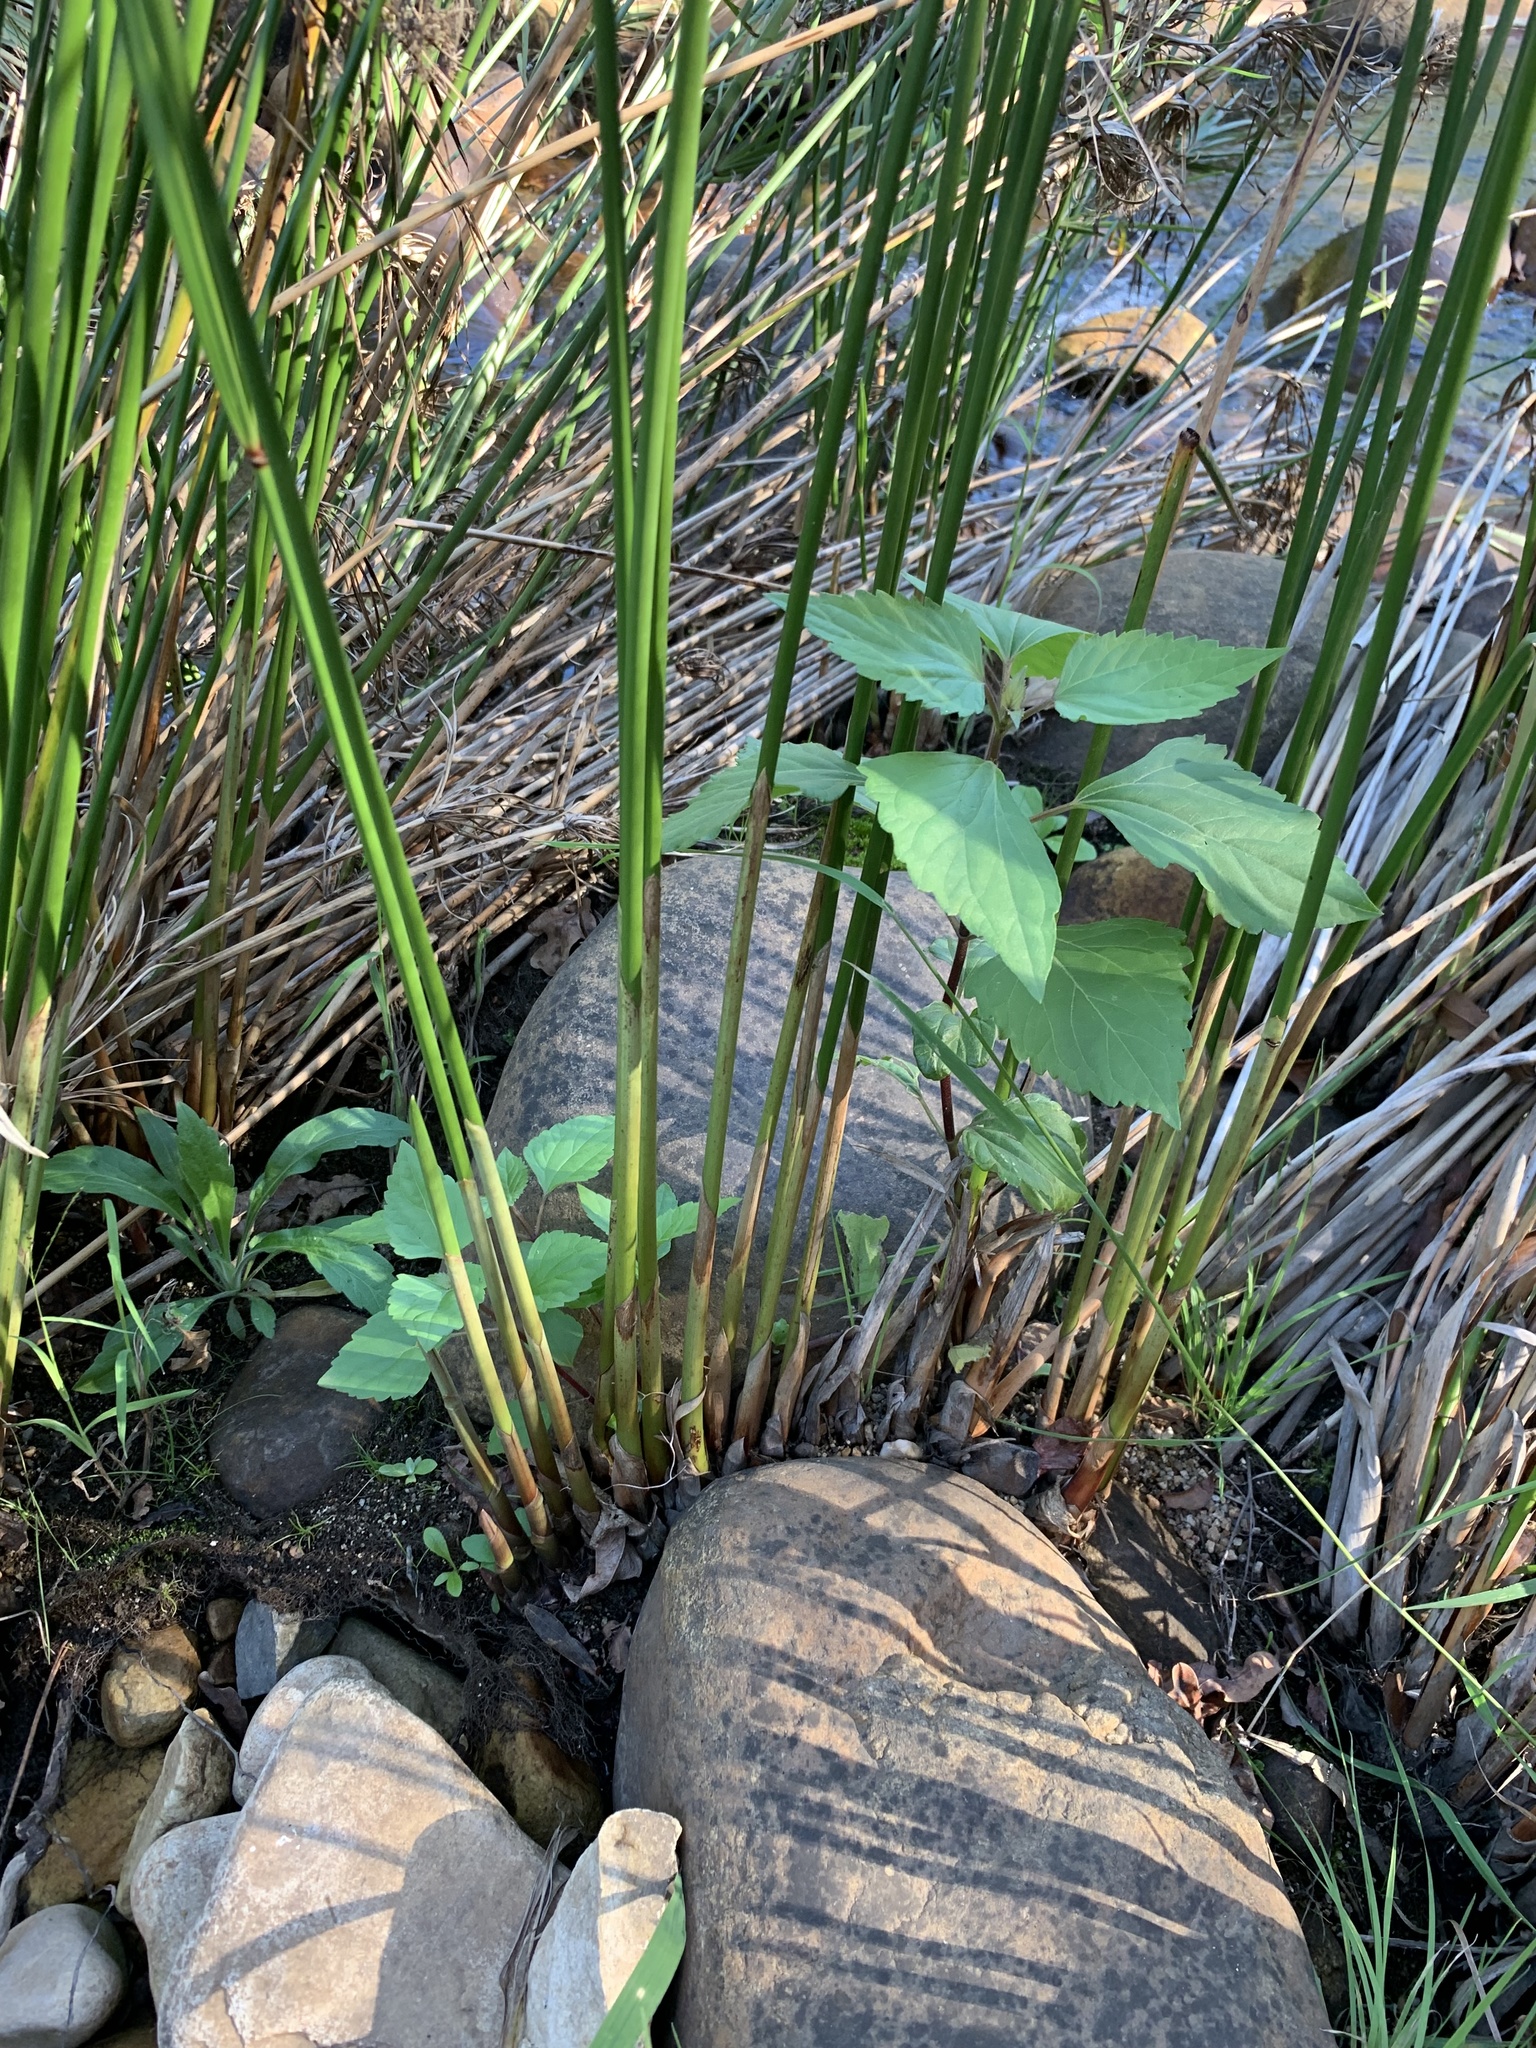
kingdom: Plantae
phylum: Tracheophyta
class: Magnoliopsida
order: Asterales
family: Asteraceae
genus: Ageratina
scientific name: Ageratina adenophora
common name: Sticky snakeroot
